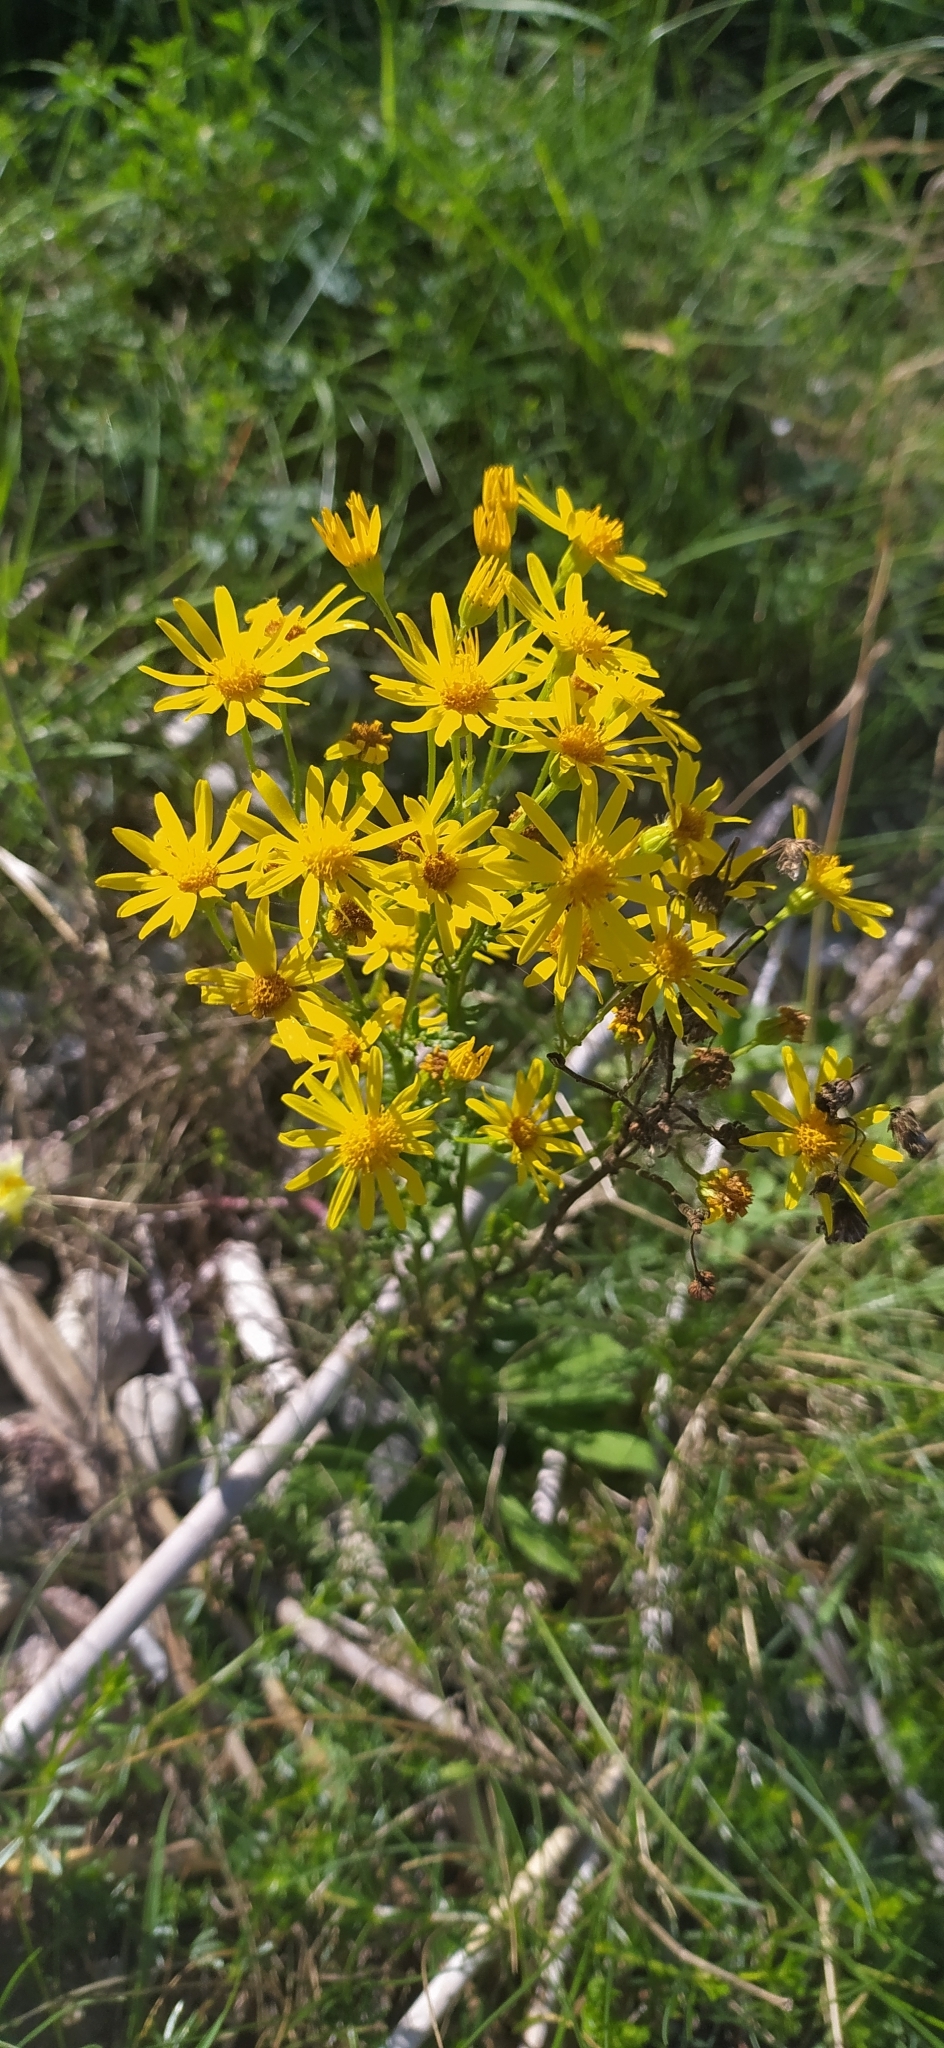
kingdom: Plantae
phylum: Tracheophyta
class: Magnoliopsida
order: Asterales
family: Asteraceae
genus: Jacobaea
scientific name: Jacobaea vulgaris
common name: Stinking willie
